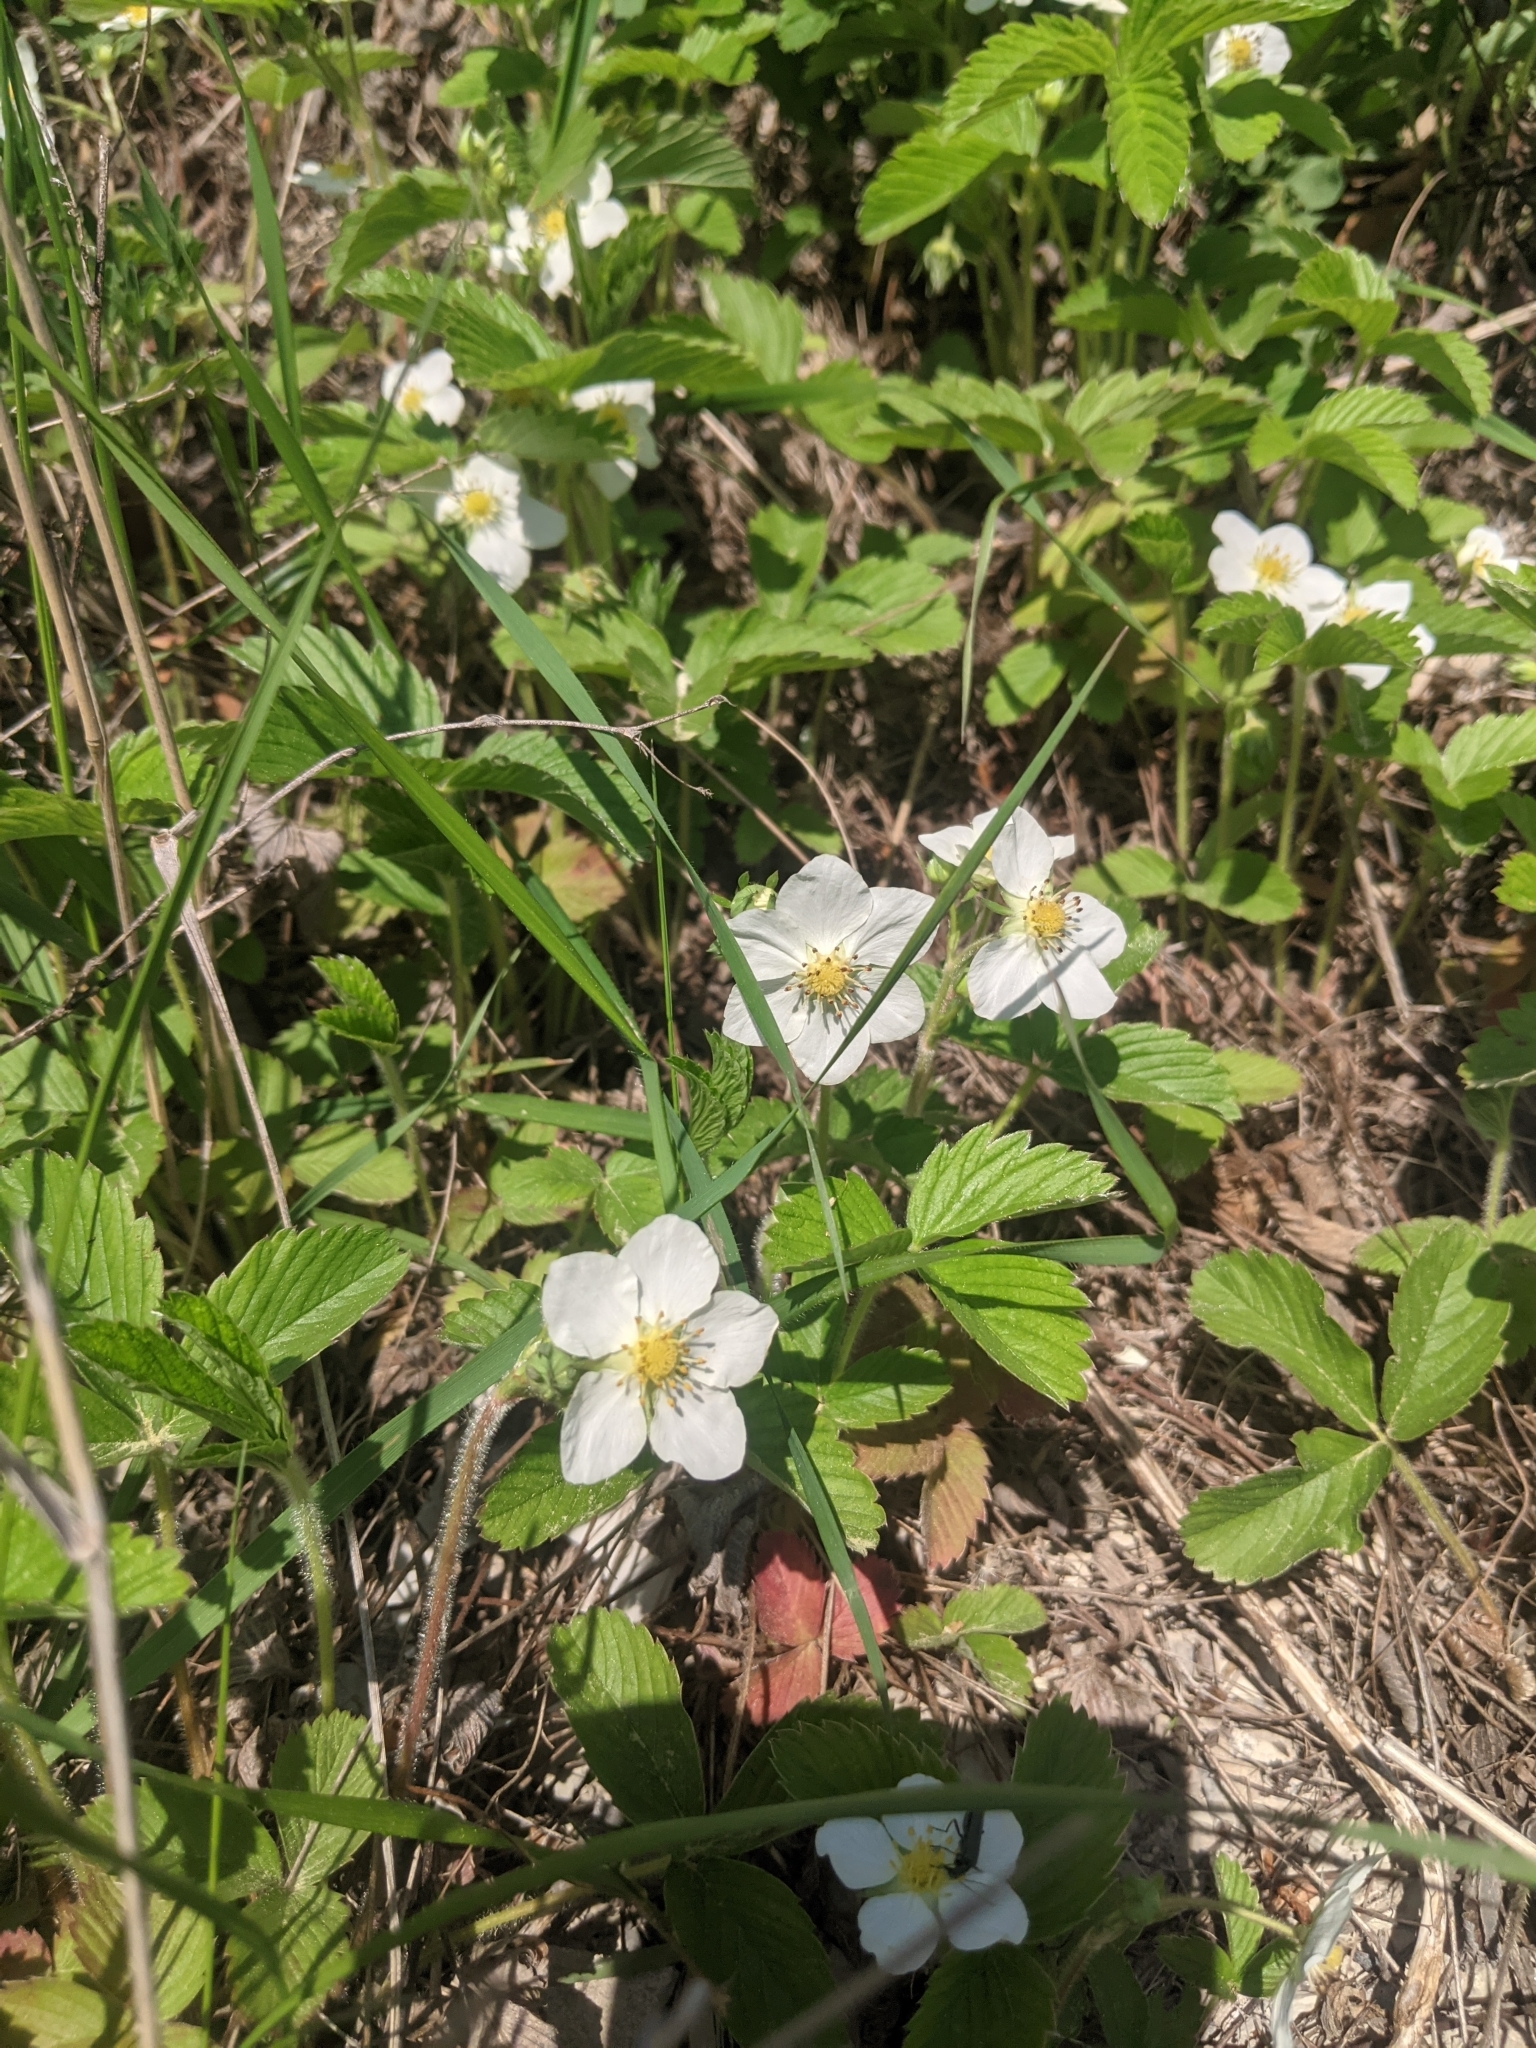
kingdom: Plantae
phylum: Tracheophyta
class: Magnoliopsida
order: Rosales
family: Rosaceae
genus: Fragaria
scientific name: Fragaria viridis
